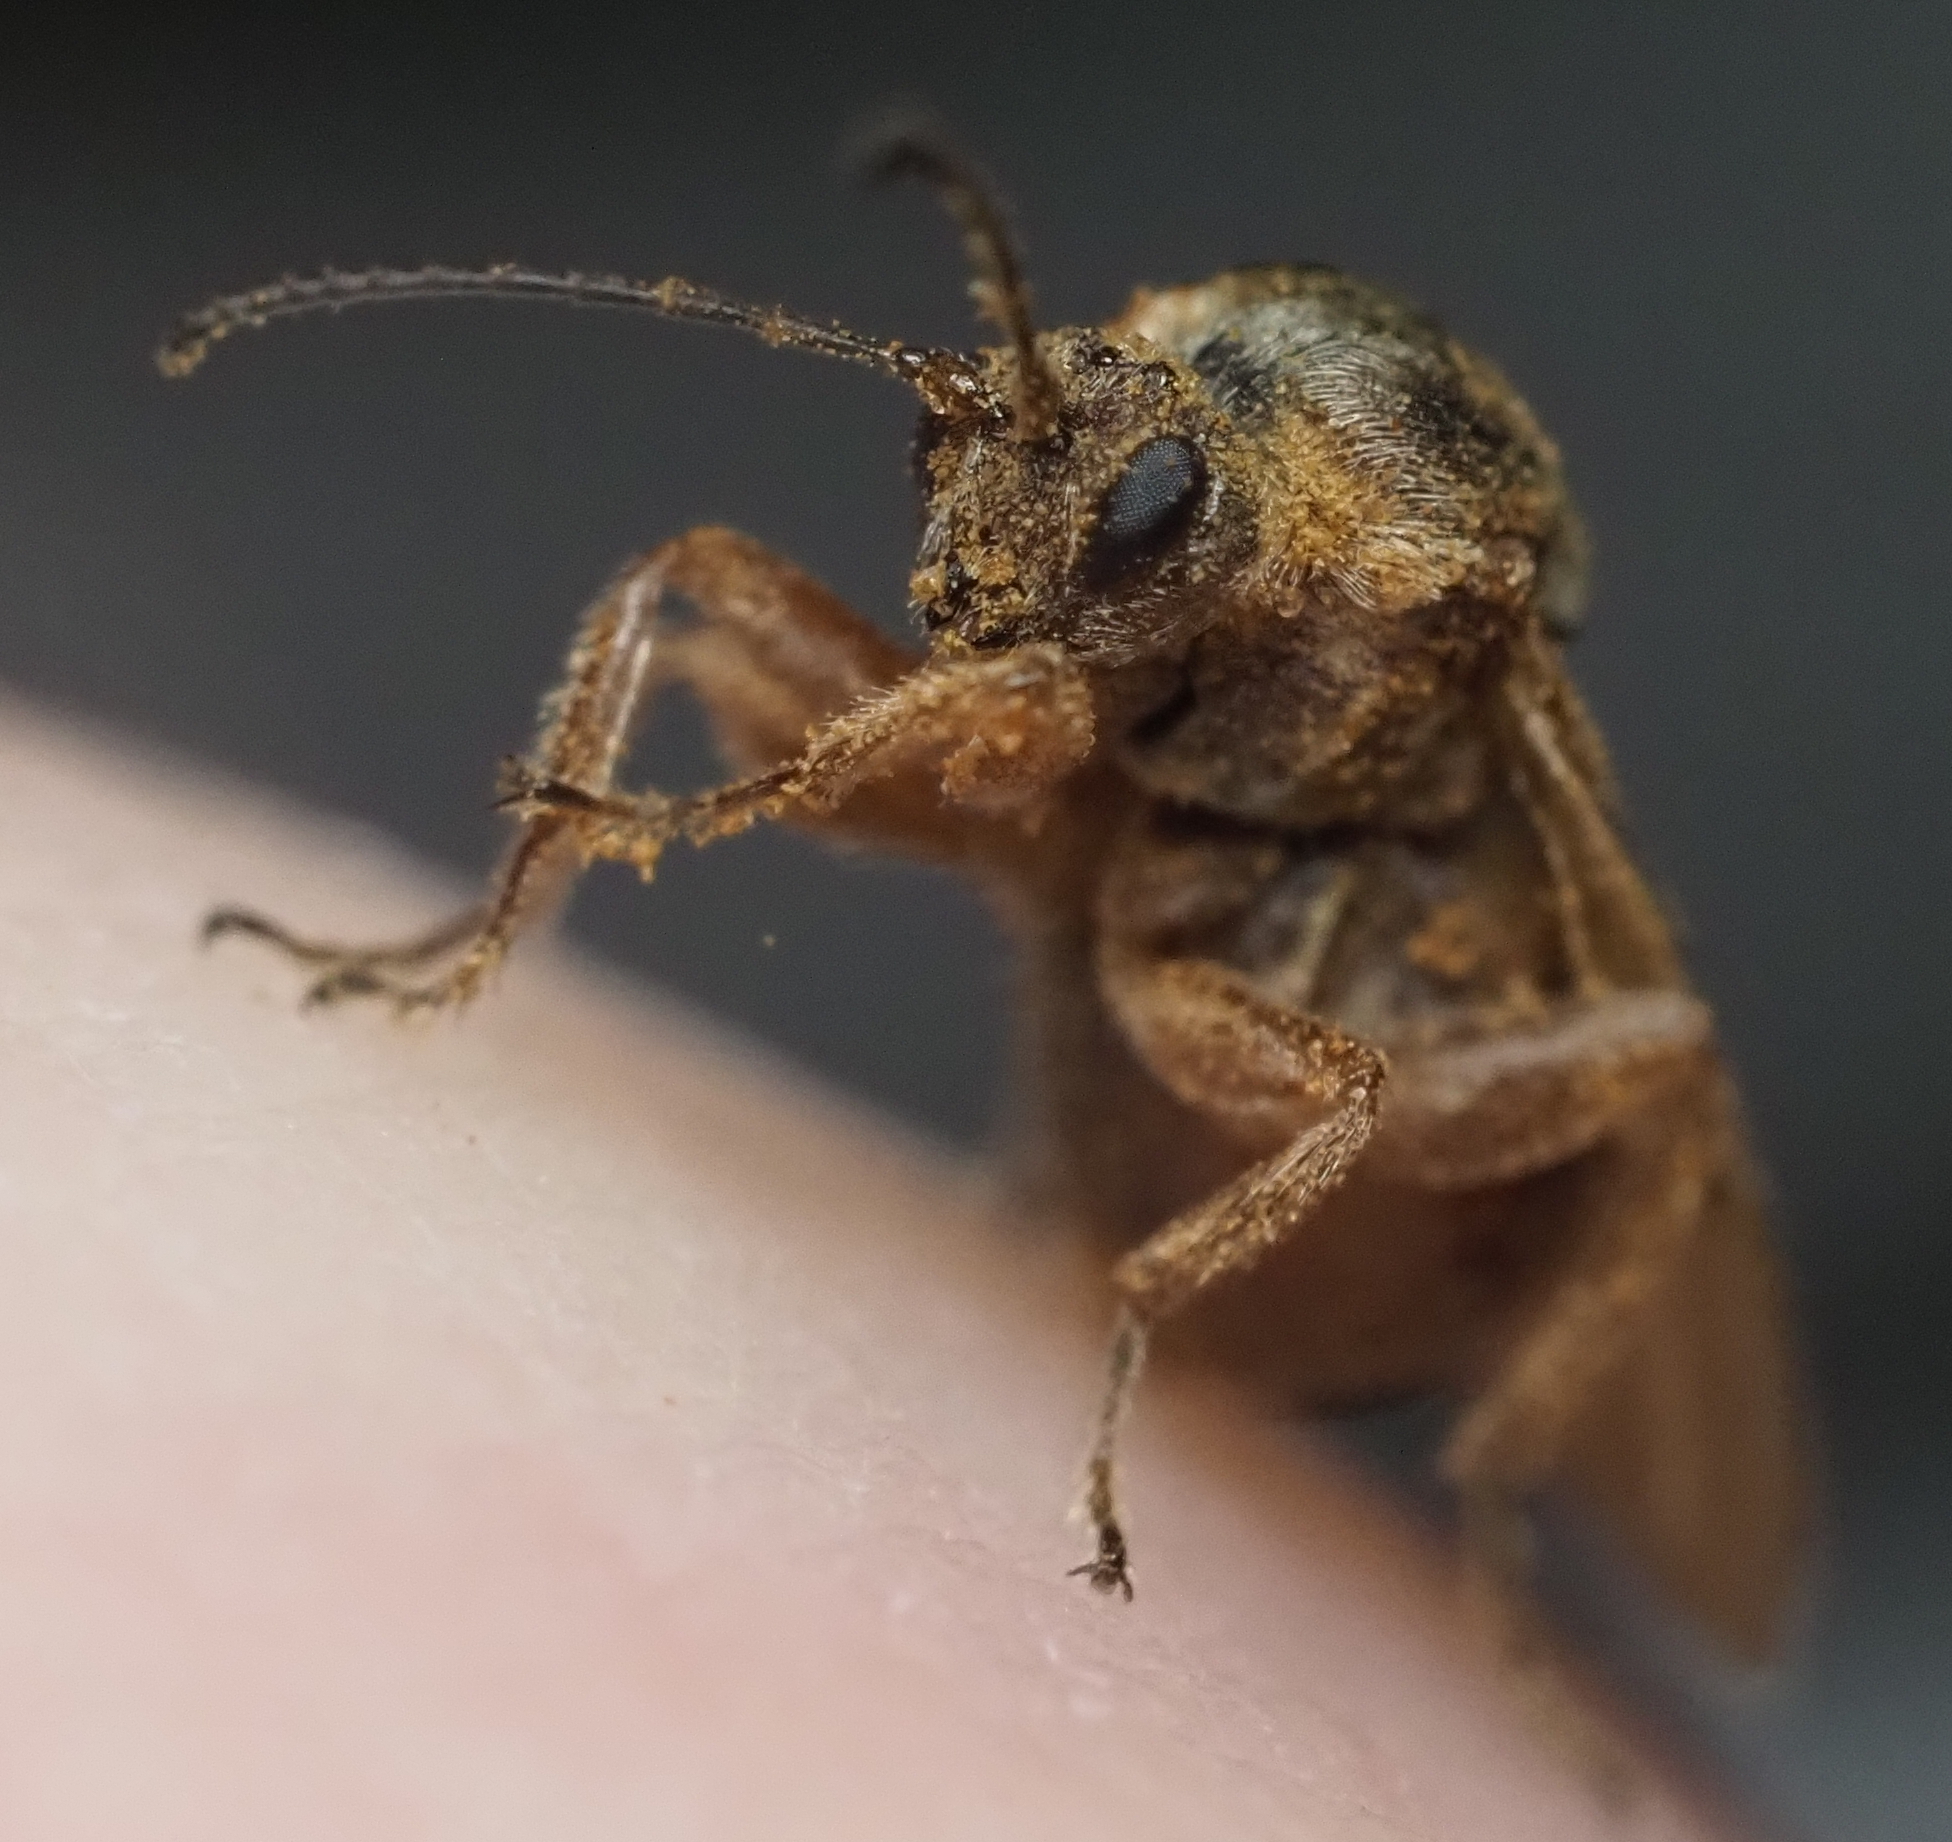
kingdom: Animalia
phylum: Arthropoda
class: Insecta
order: Hymenoptera
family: Cynipidae
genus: Disholcaspis
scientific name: Disholcaspis
